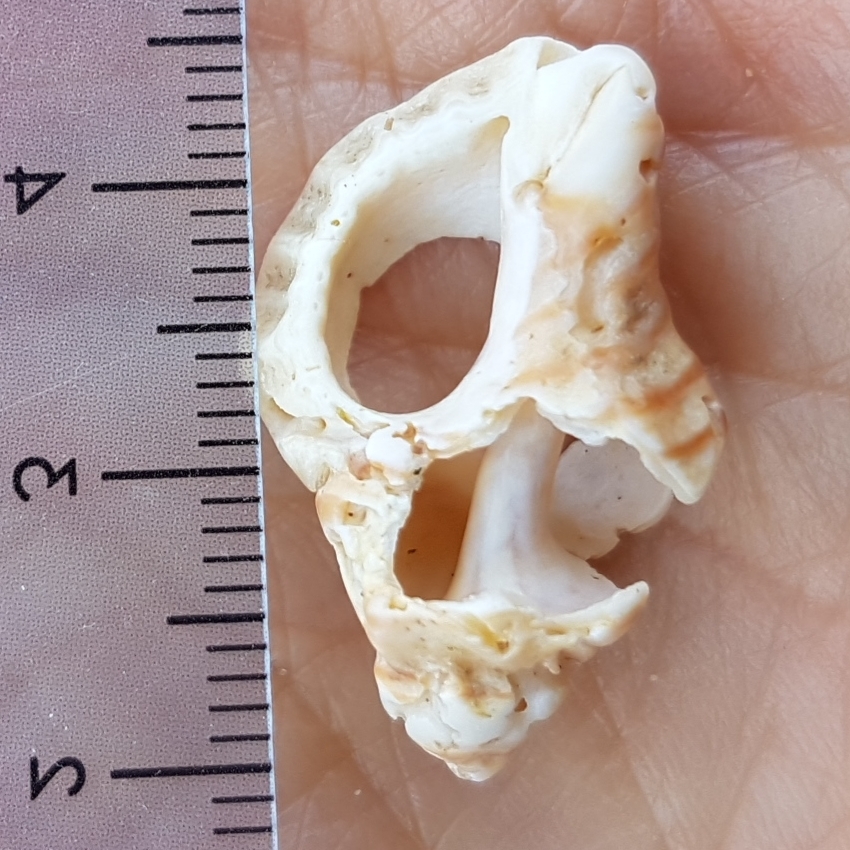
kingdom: Animalia
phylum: Mollusca
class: Gastropoda
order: Neogastropoda
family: Muricidae
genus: Ocenebra
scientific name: Ocenebra erinaceus
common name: European sting winkle
